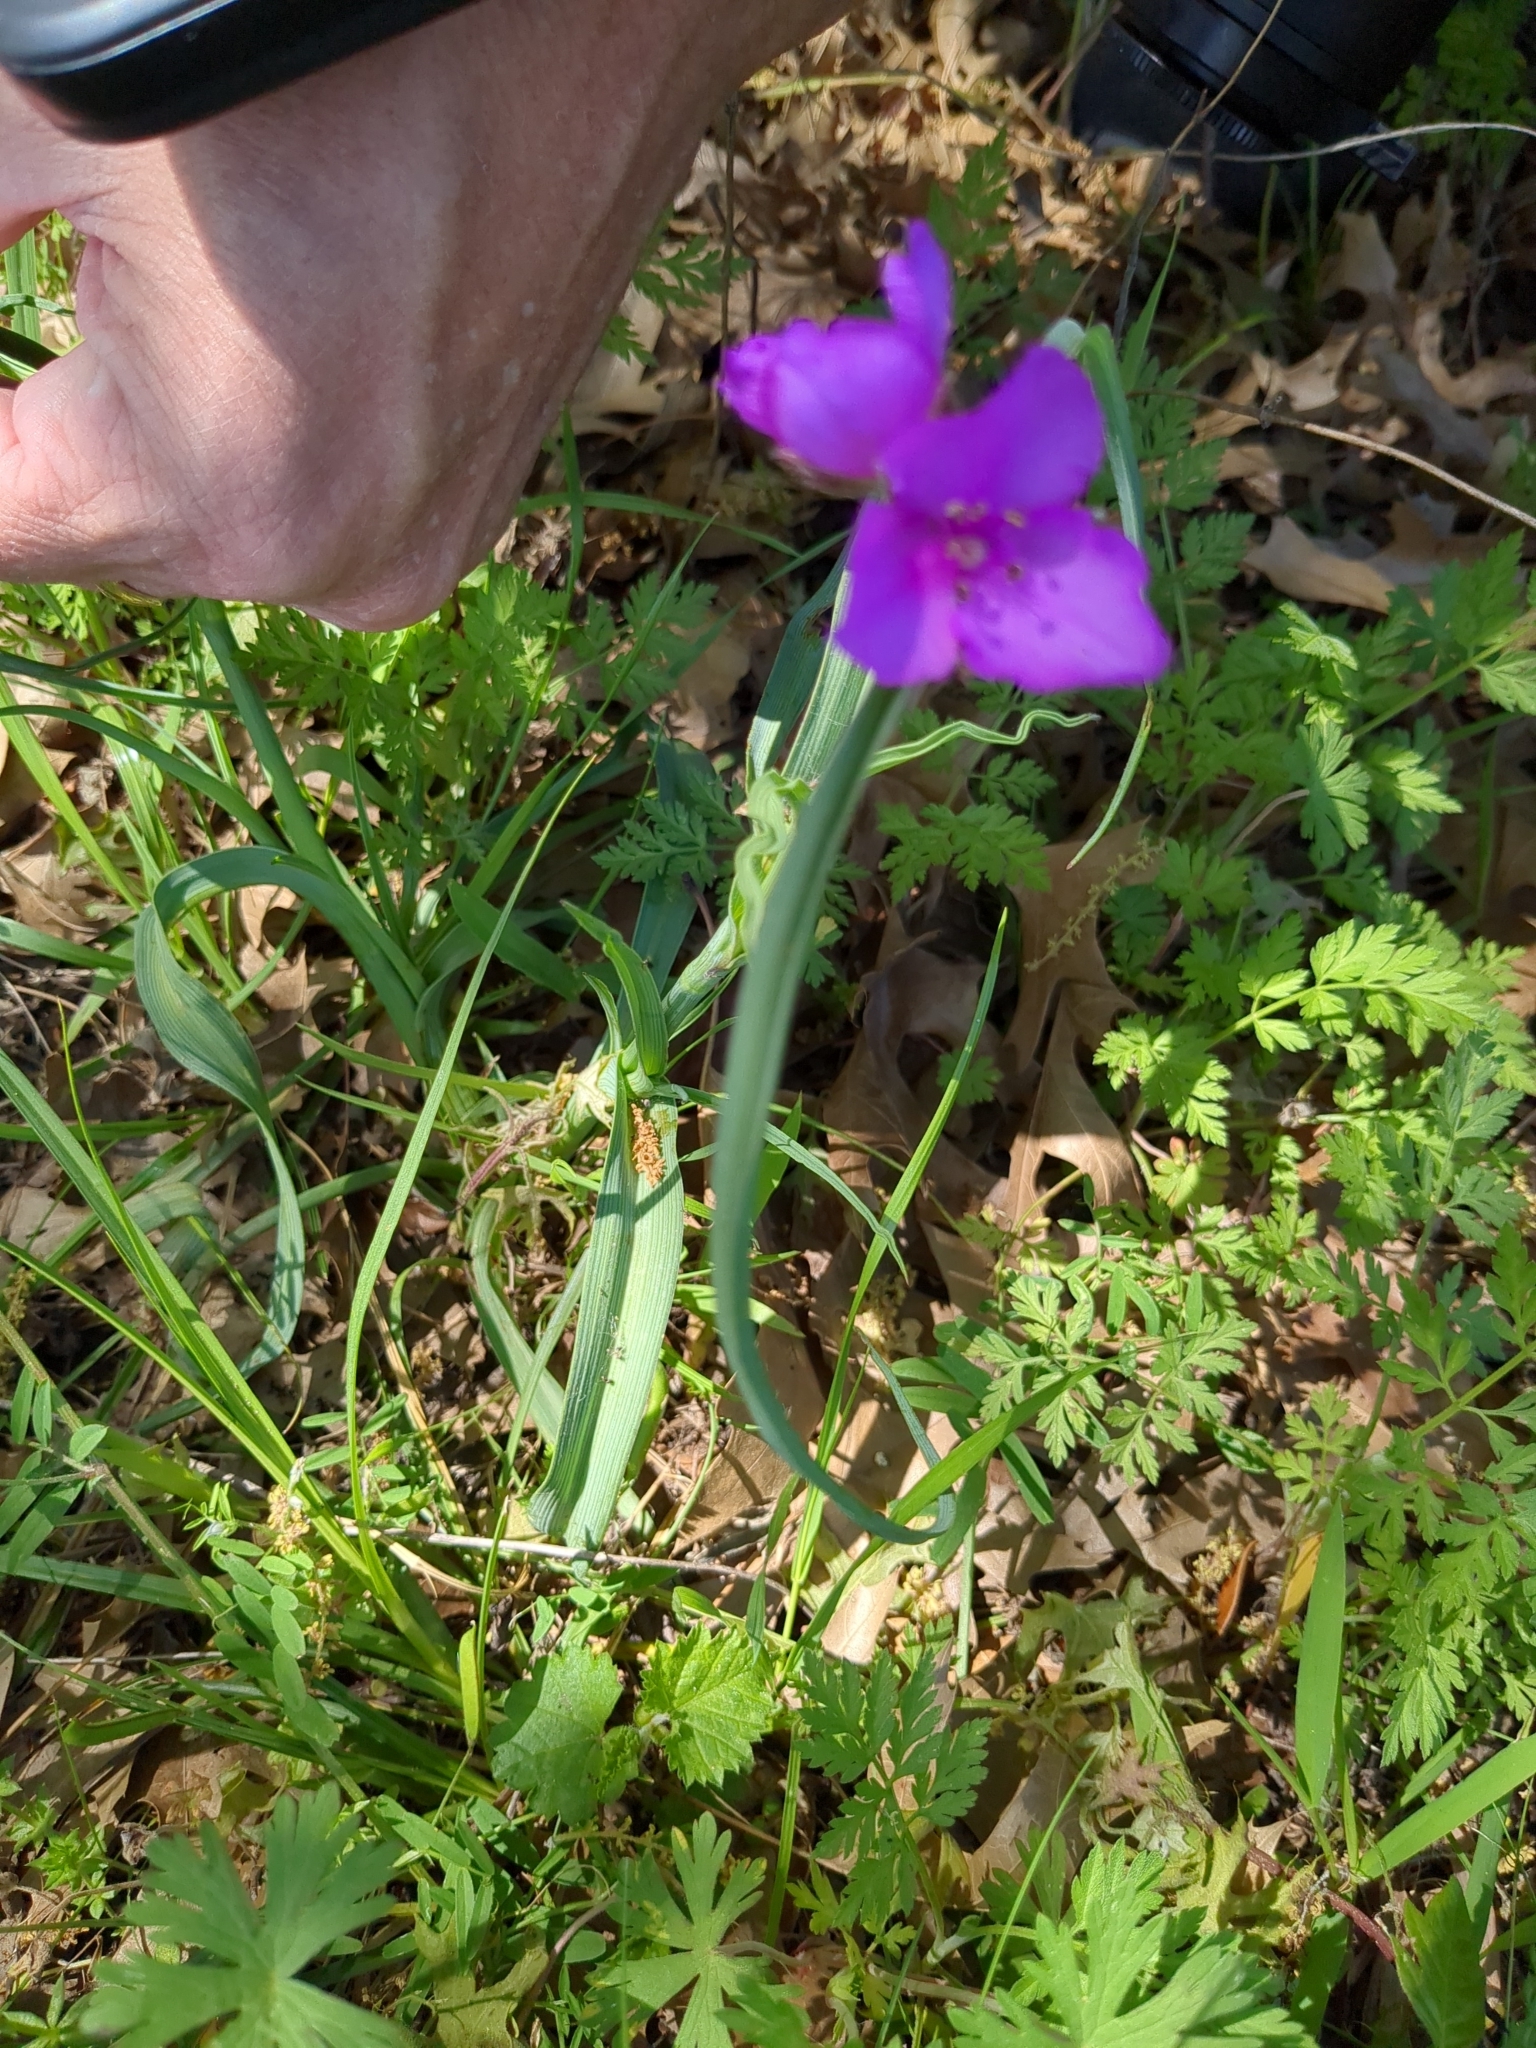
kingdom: Plantae
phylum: Tracheophyta
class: Liliopsida
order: Commelinales
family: Commelinaceae
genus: Tradescantia
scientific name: Tradescantia occidentalis
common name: Prairie spiderwort
